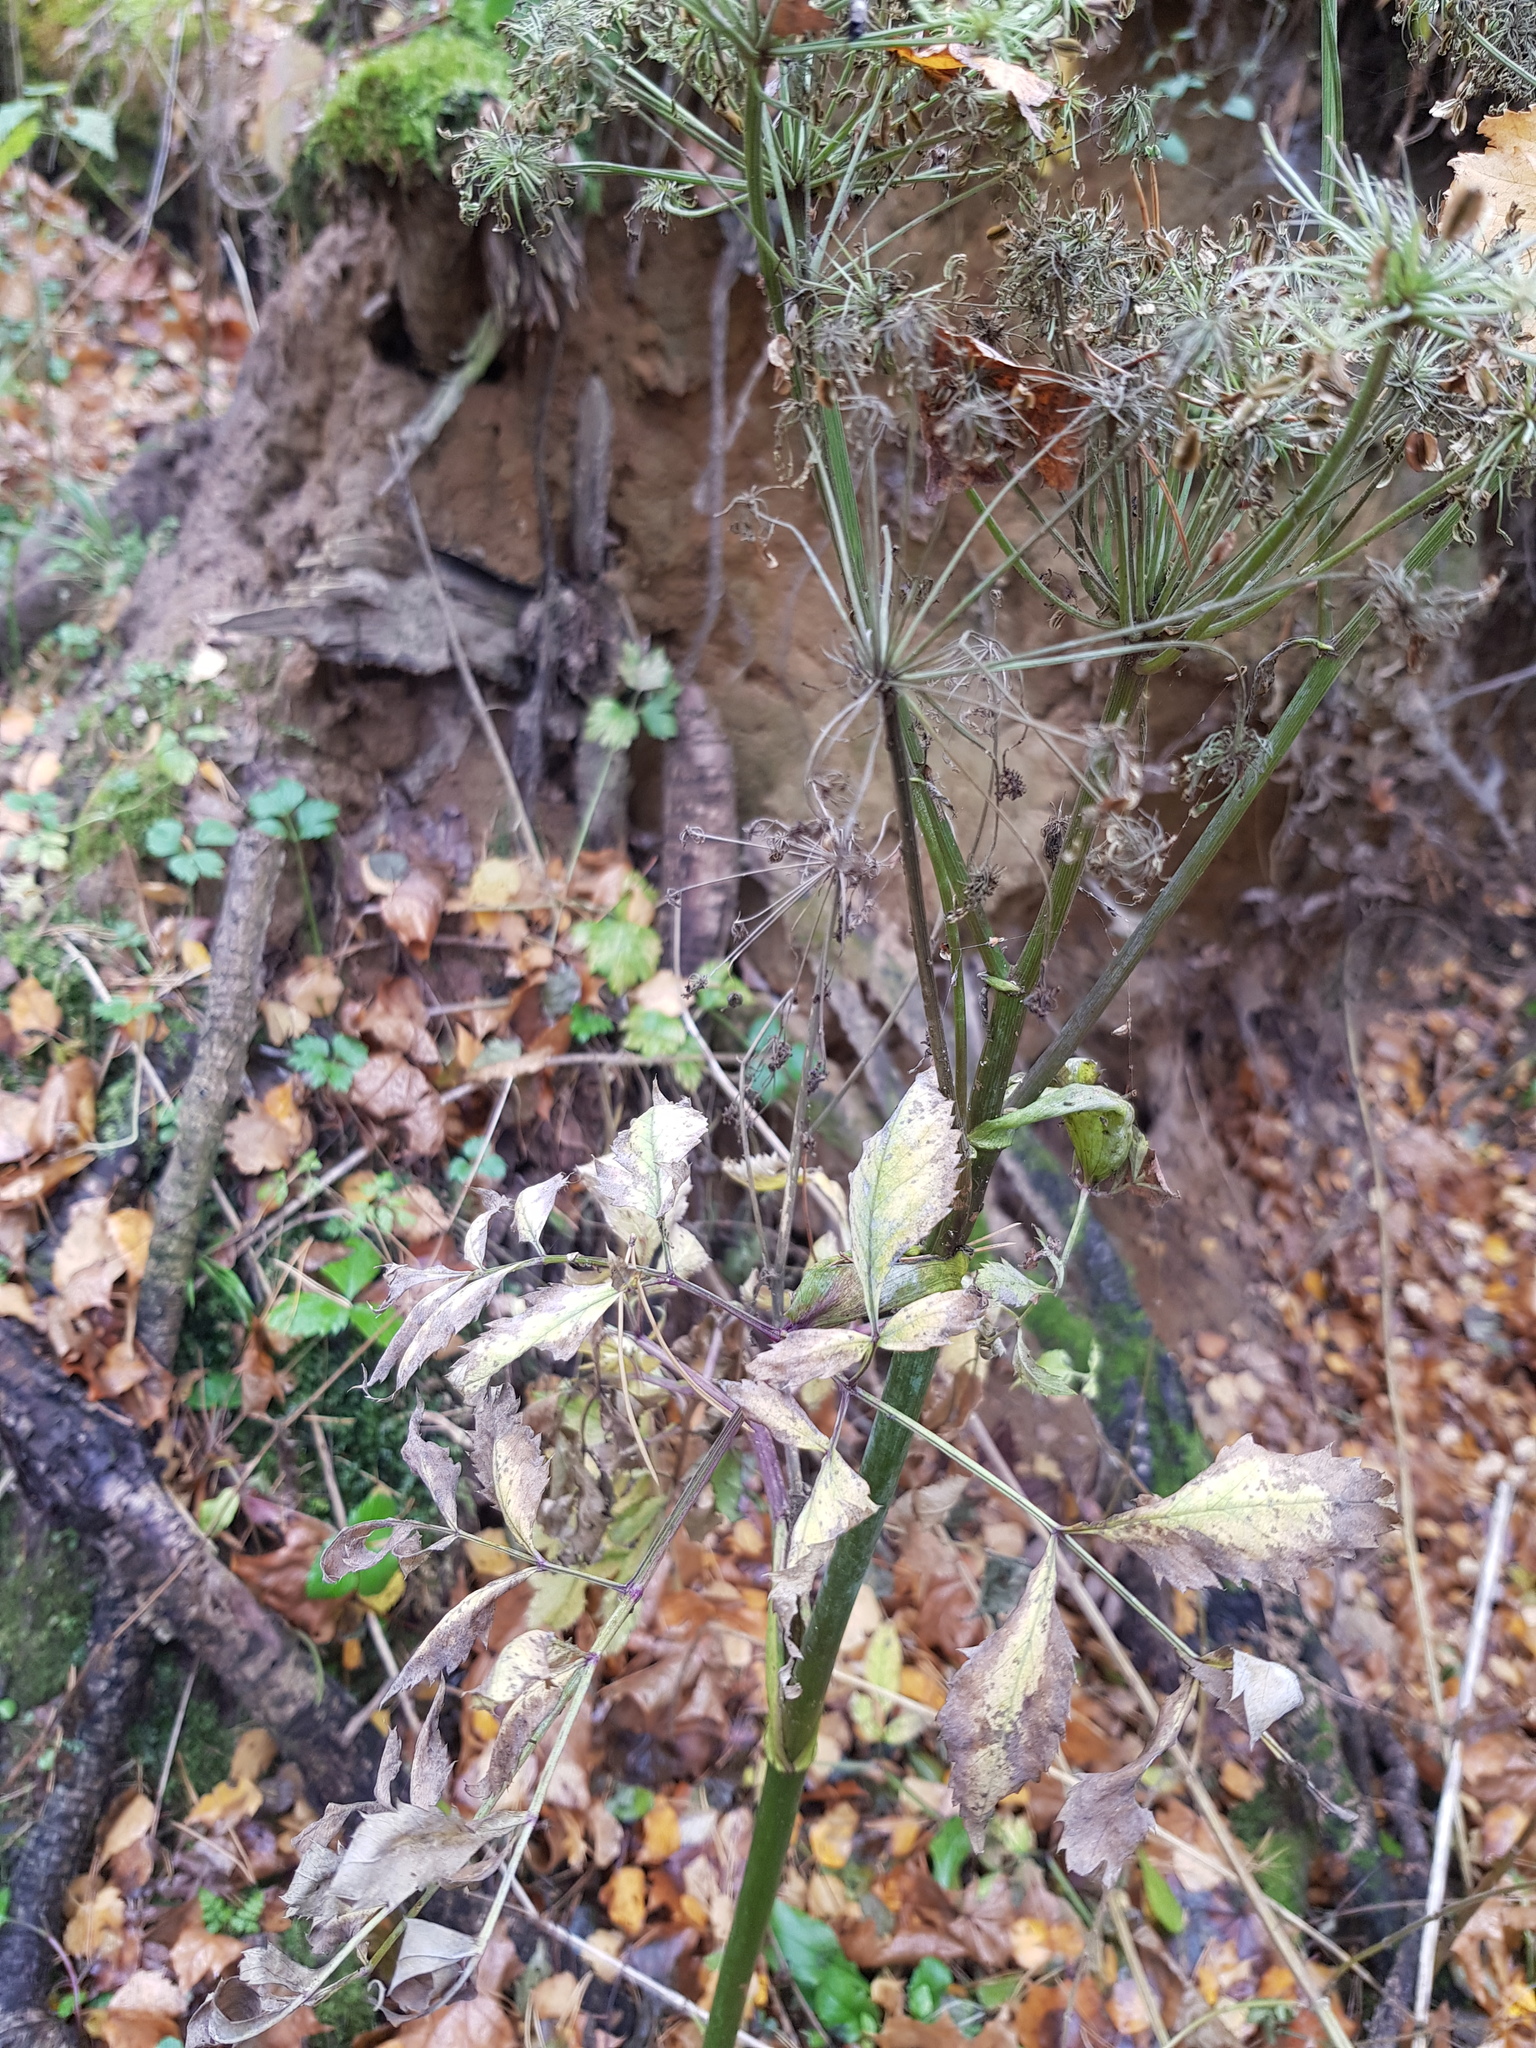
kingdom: Plantae
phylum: Tracheophyta
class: Magnoliopsida
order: Apiales
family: Apiaceae
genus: Angelica
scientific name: Angelica sylvestris
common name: Wild angelica
